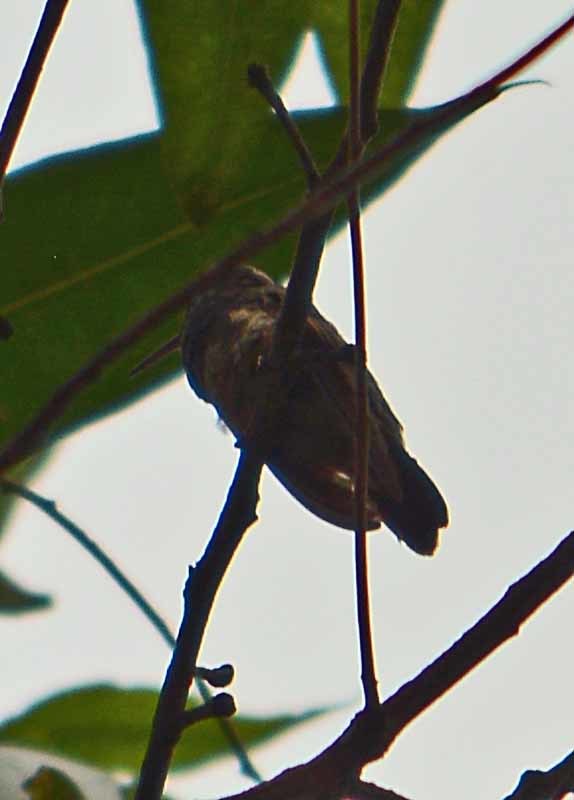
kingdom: Animalia
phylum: Chordata
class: Aves
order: Apodiformes
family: Trochilidae
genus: Saucerottia
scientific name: Saucerottia beryllina
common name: Berylline hummingbird
